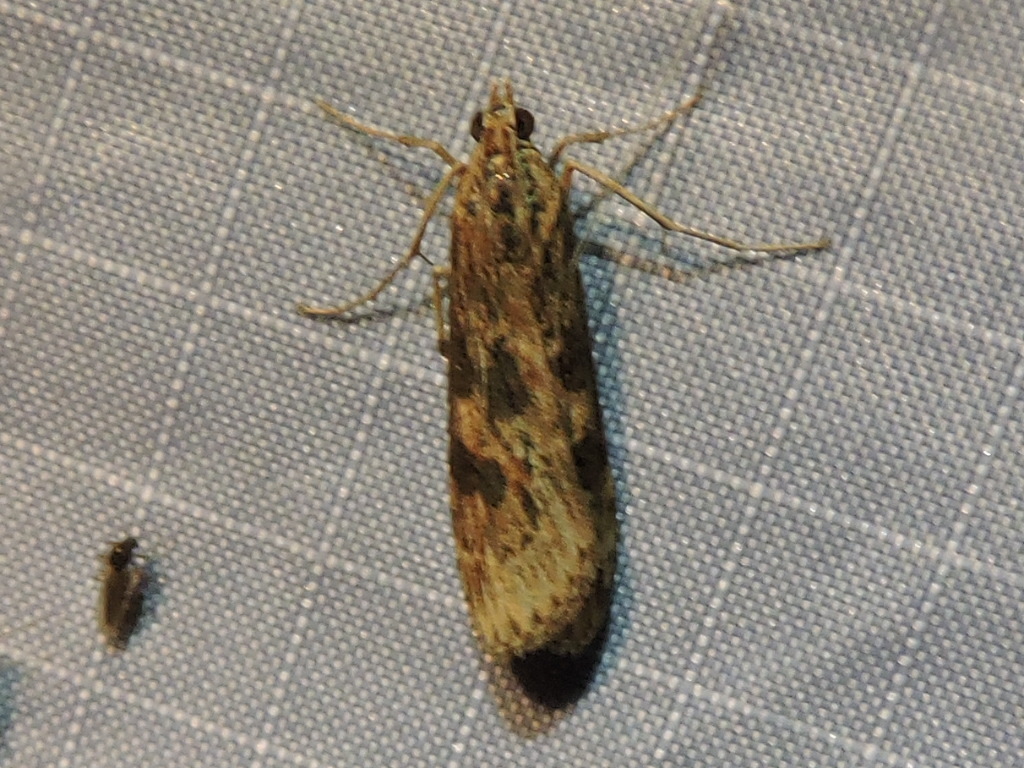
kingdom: Animalia
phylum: Arthropoda
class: Insecta
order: Lepidoptera
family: Crambidae
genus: Nomophila
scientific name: Nomophila nearctica
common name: American rush veneer
